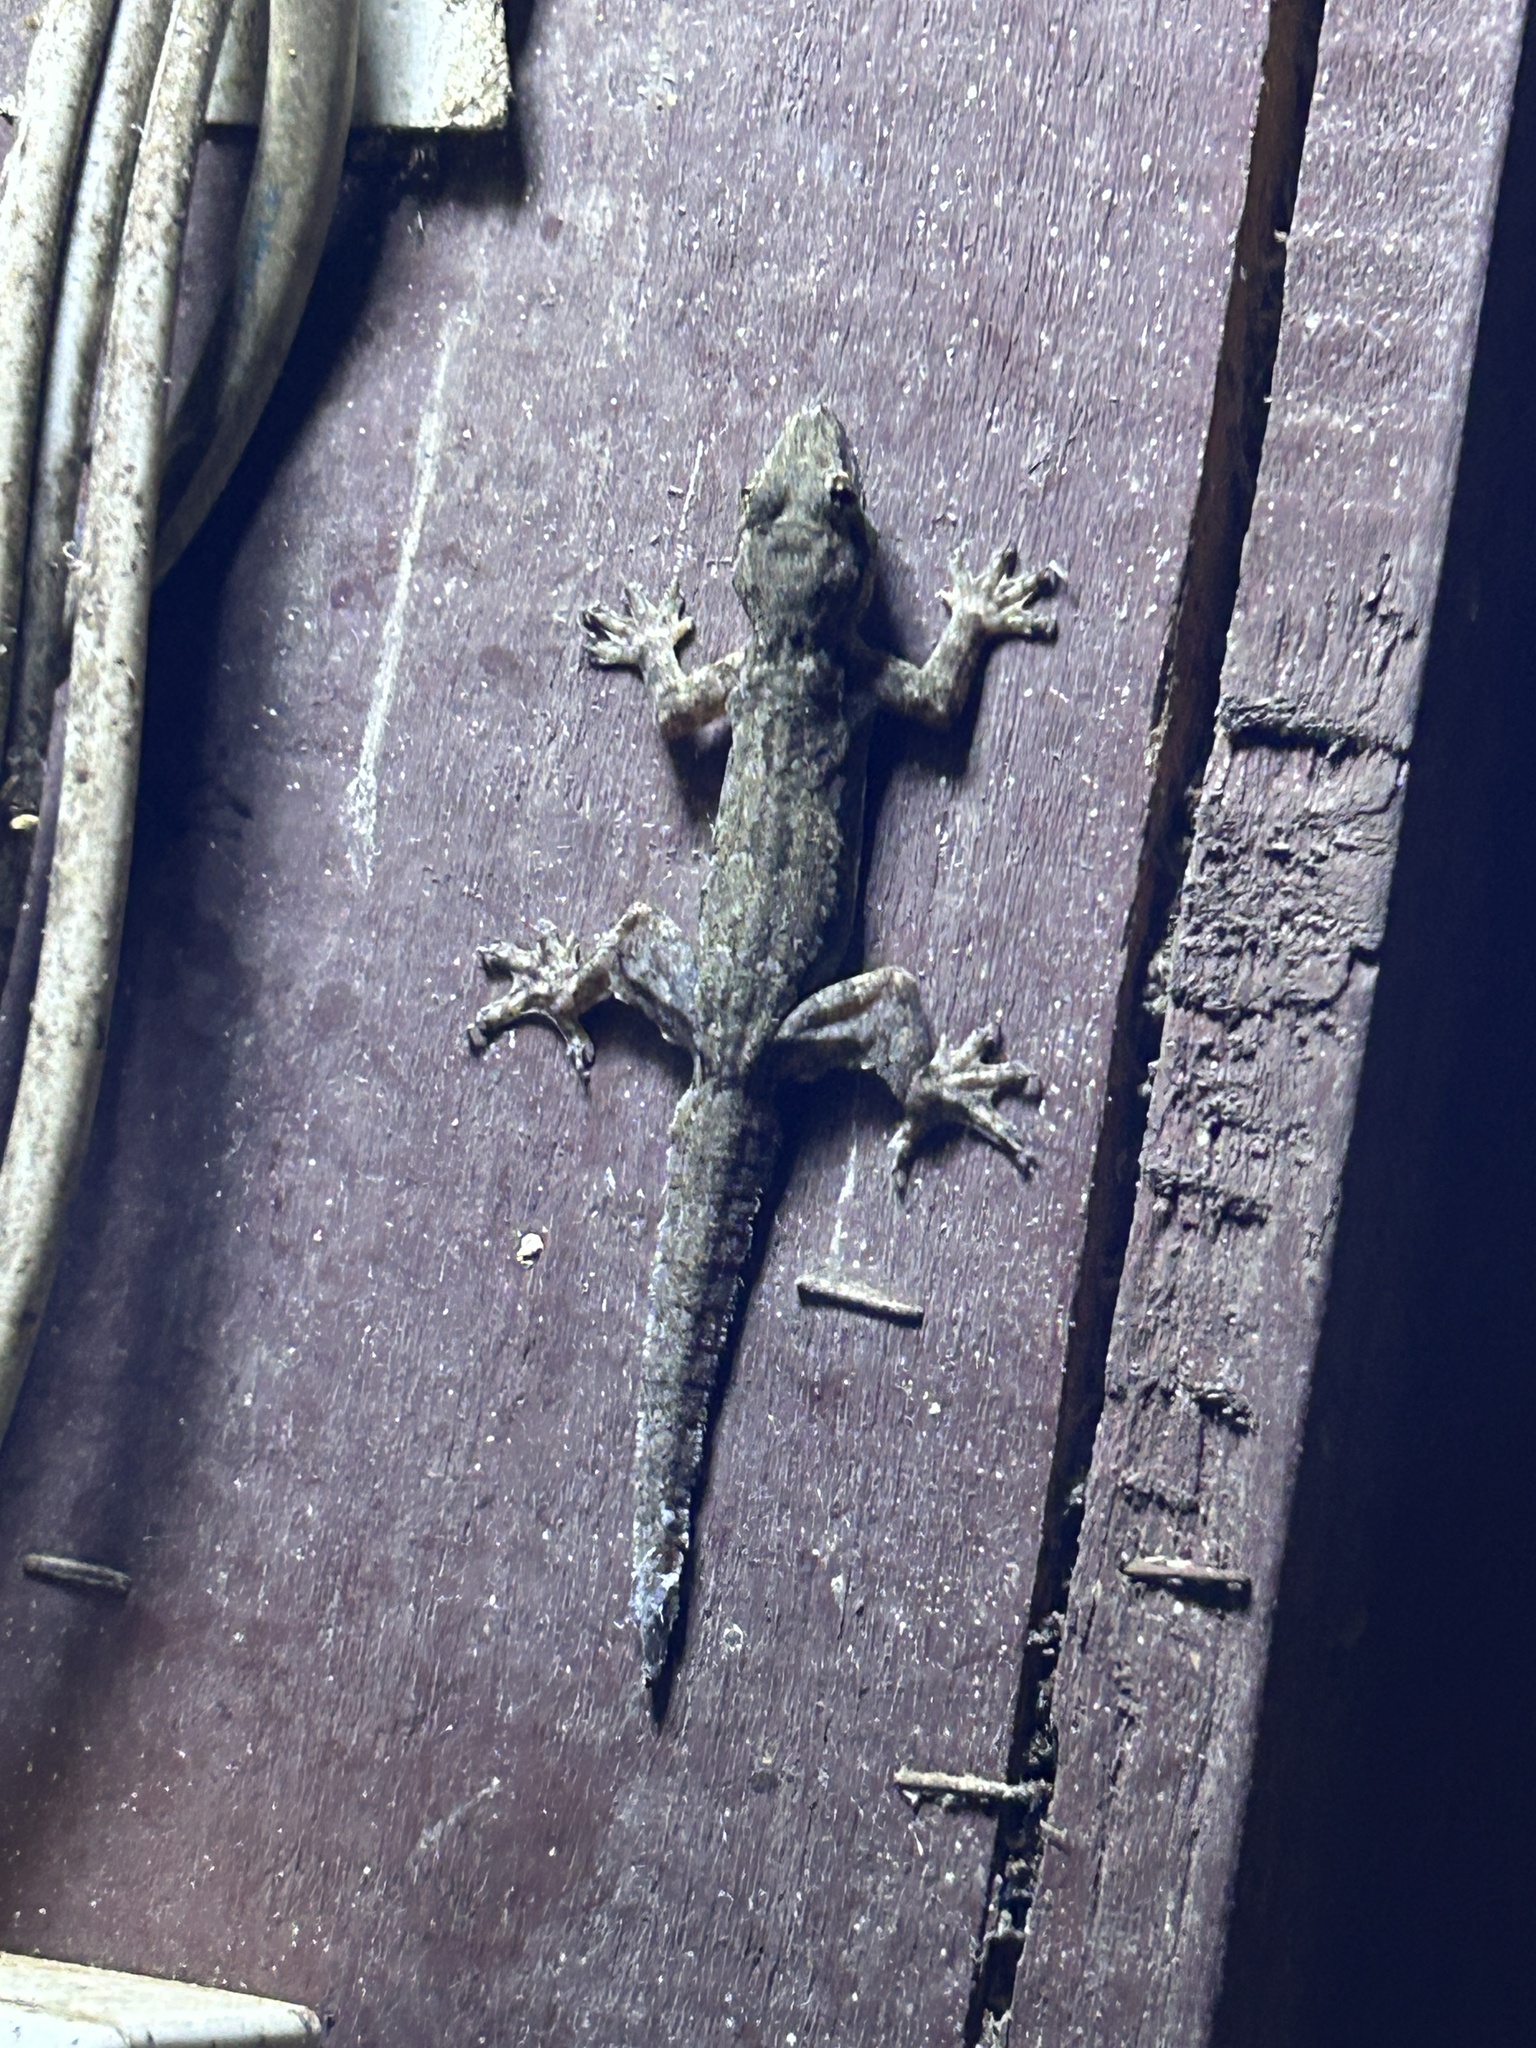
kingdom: Animalia
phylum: Chordata
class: Squamata
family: Gekkonidae
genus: Hemidactylus
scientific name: Hemidactylus platyurus
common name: Flat-tailed house gecko
